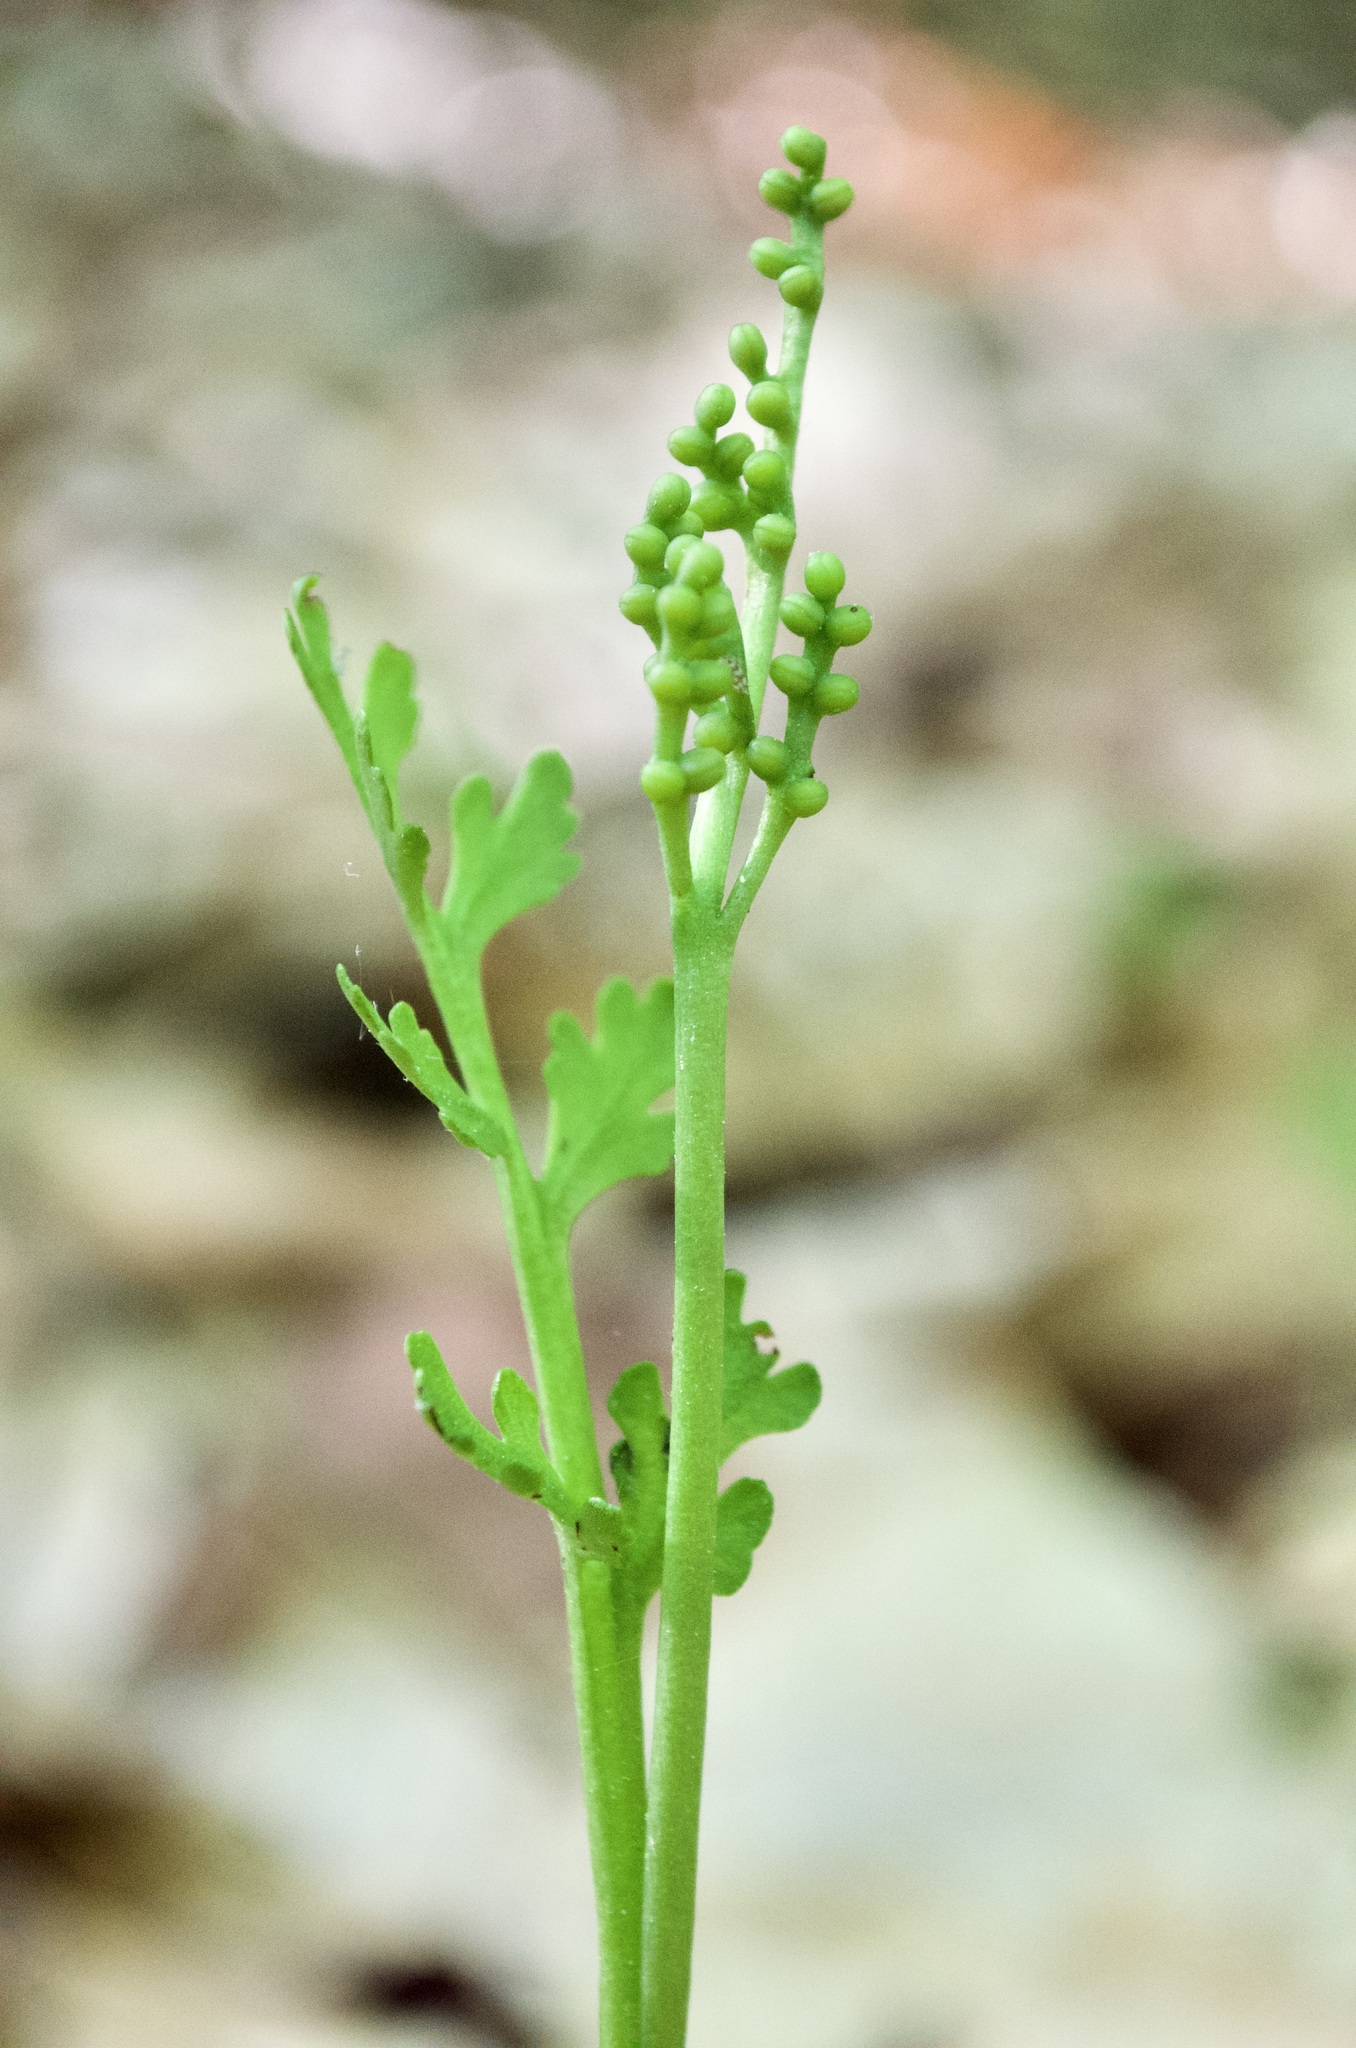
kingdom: Plantae
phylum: Tracheophyta
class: Polypodiopsida
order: Ophioglossales
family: Ophioglossaceae
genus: Botrychium
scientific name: Botrychium matricariifolium
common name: Branched moonwort
